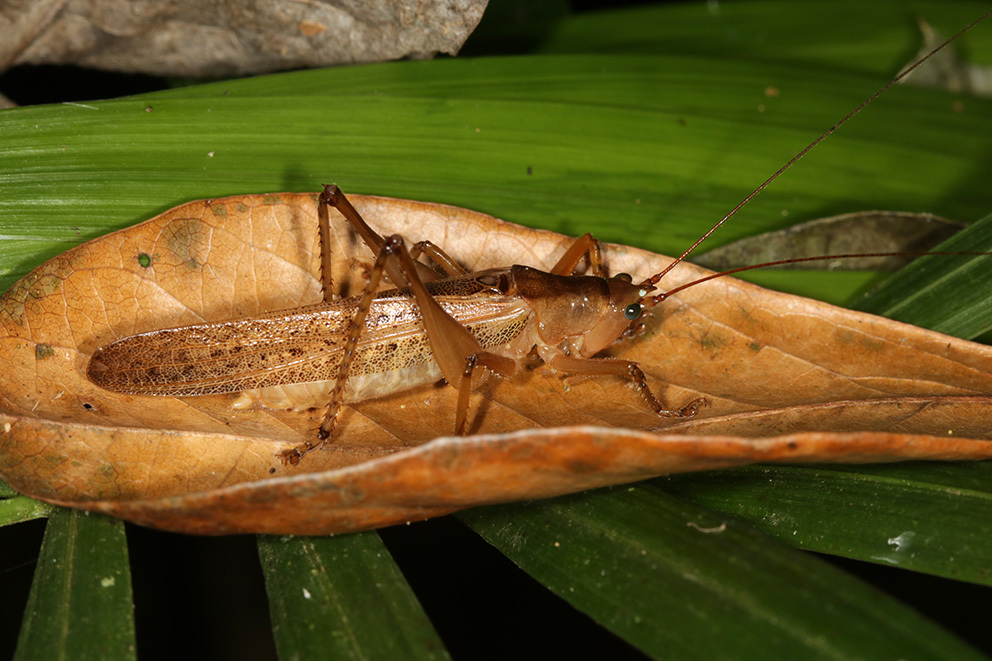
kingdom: Animalia
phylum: Arthropoda
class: Insecta
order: Orthoptera
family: Tettigoniidae
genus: Iaratrox
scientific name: Iaratrox maculata
